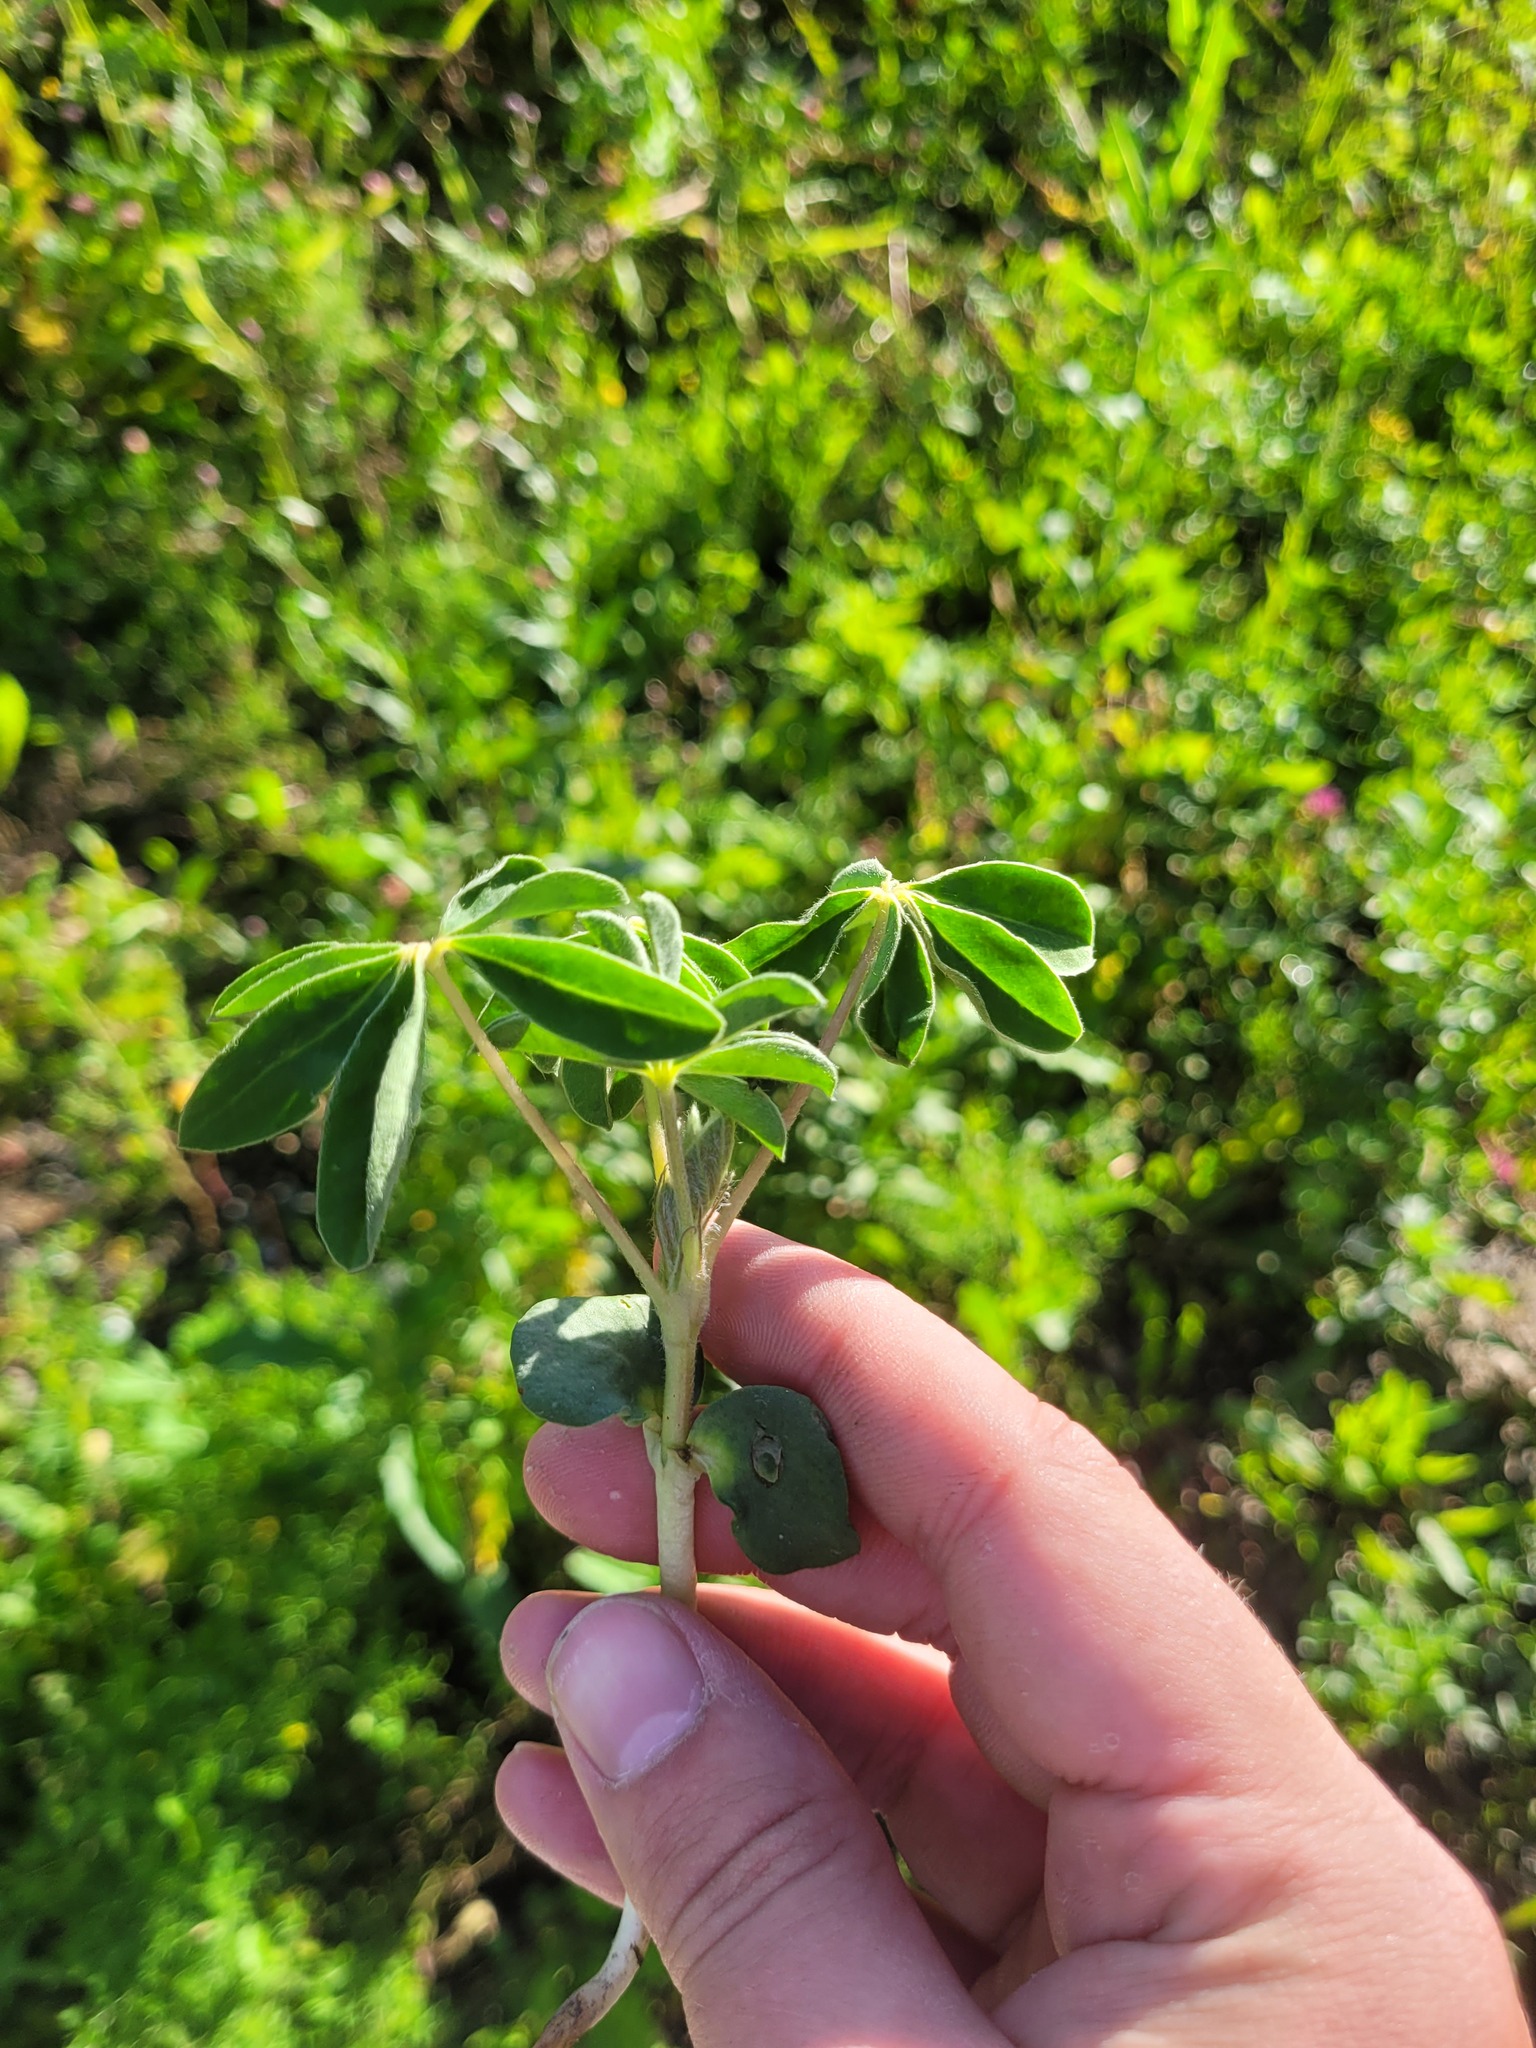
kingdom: Plantae
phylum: Tracheophyta
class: Magnoliopsida
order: Fabales
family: Fabaceae
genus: Lupinus
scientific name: Lupinus albus
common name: White lupin
